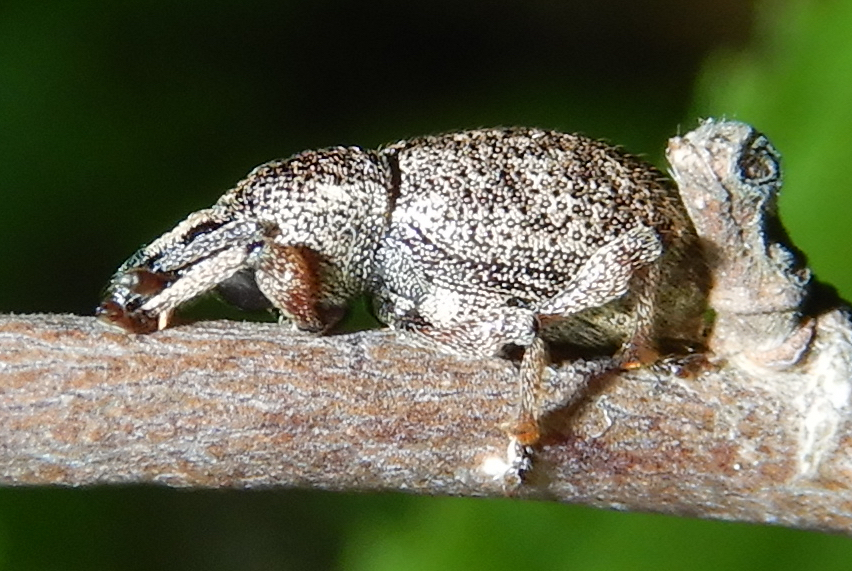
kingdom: Animalia
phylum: Arthropoda
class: Insecta
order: Coleoptera
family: Curculionidae
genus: Otiorhynchus
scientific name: Otiorhynchus singularis
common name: Clay-coloured weevil
